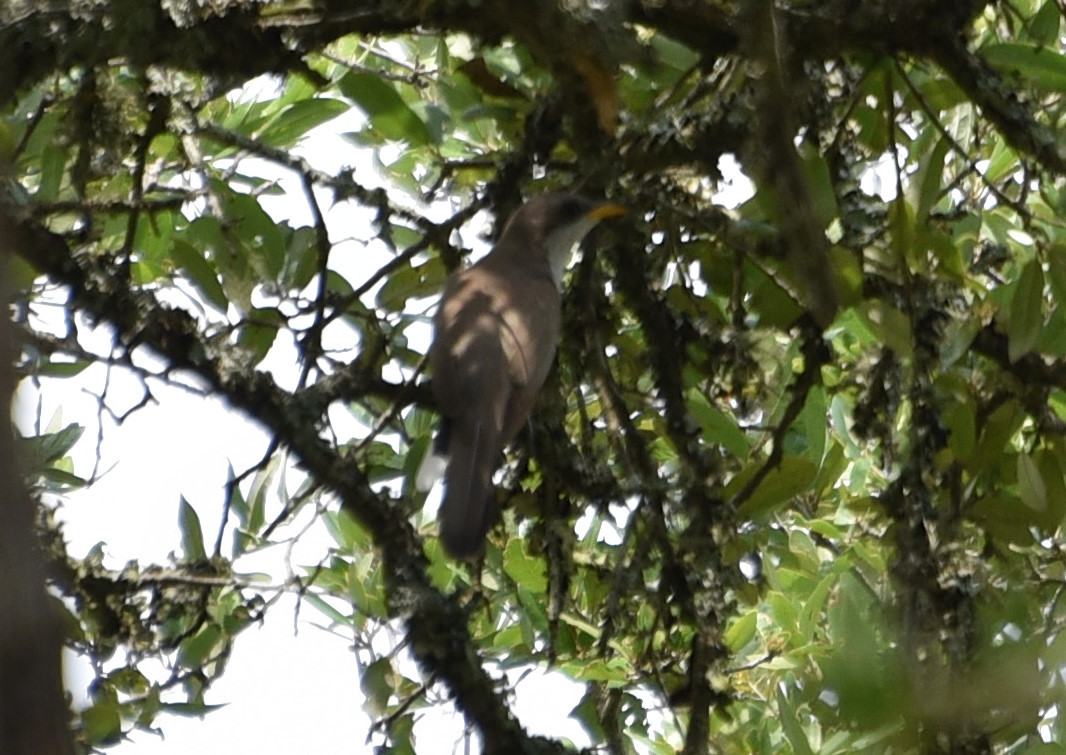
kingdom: Animalia
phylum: Chordata
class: Aves
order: Cuculiformes
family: Cuculidae
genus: Coccyzus
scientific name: Coccyzus americanus
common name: Yellow-billed cuckoo
